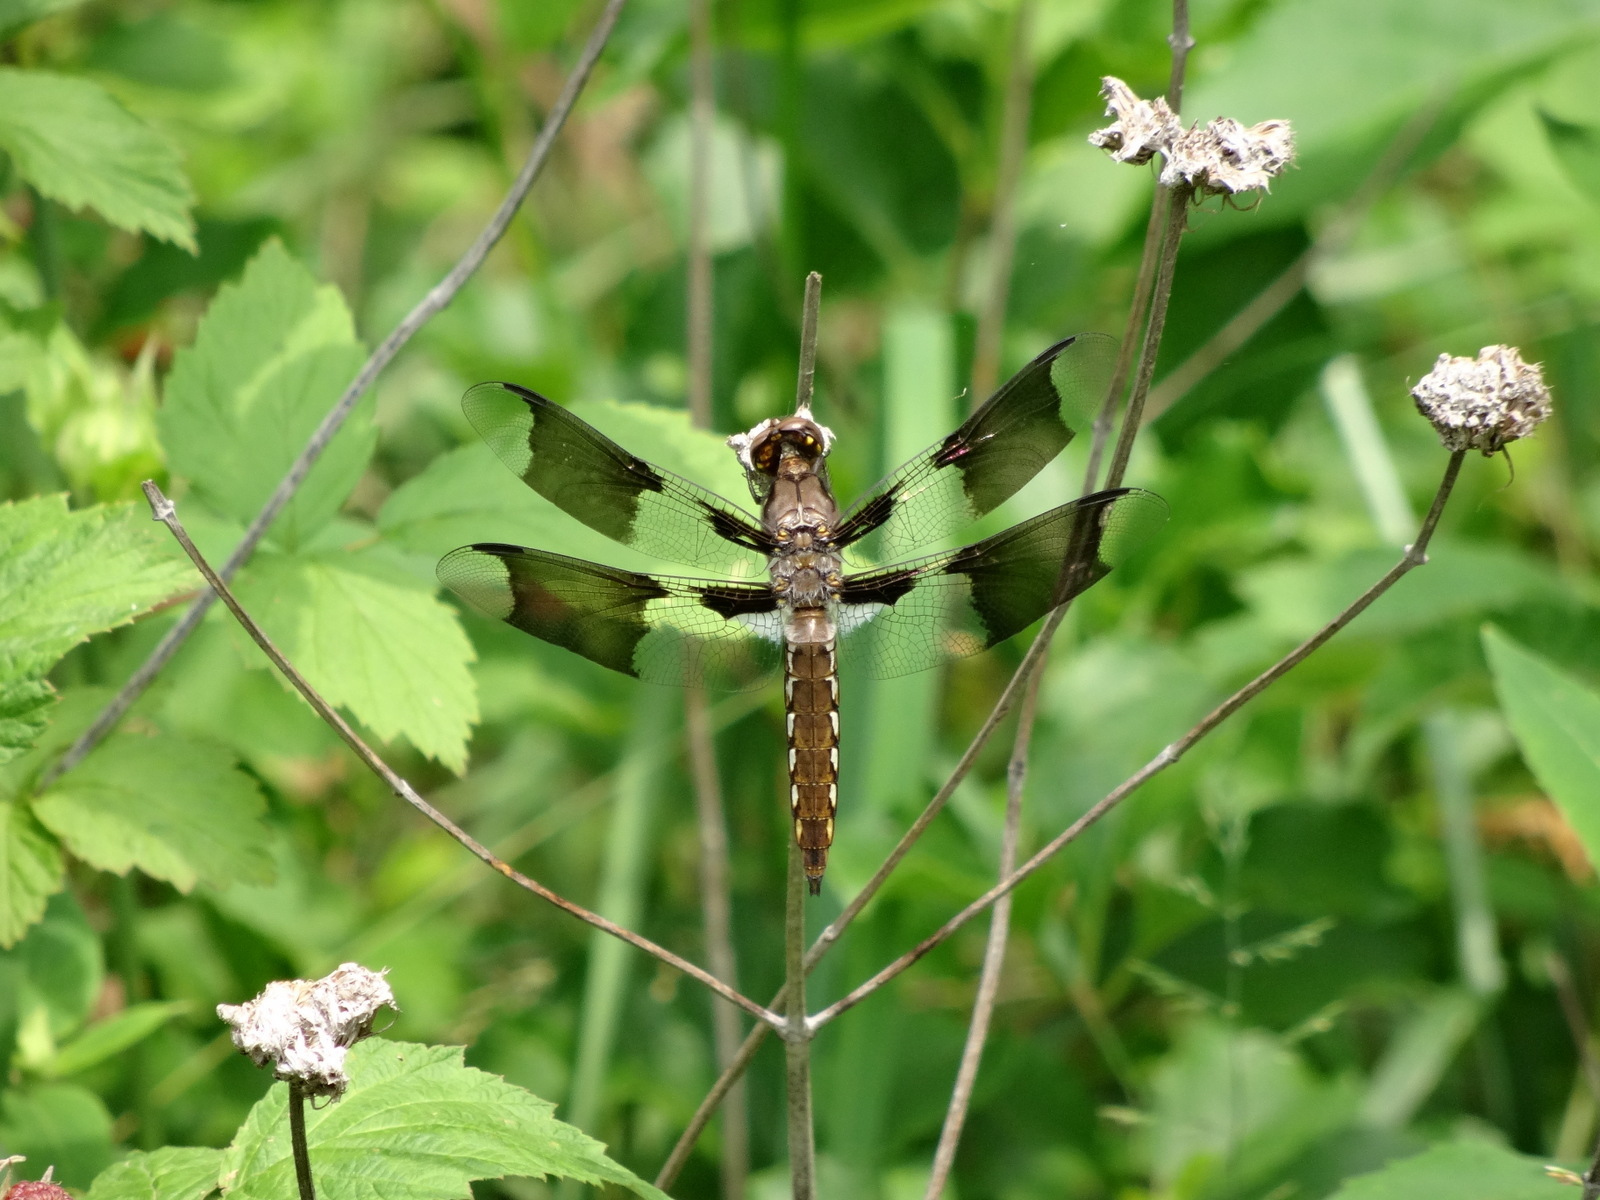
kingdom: Animalia
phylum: Arthropoda
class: Insecta
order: Odonata
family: Libellulidae
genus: Plathemis
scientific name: Plathemis lydia
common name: Common whitetail
